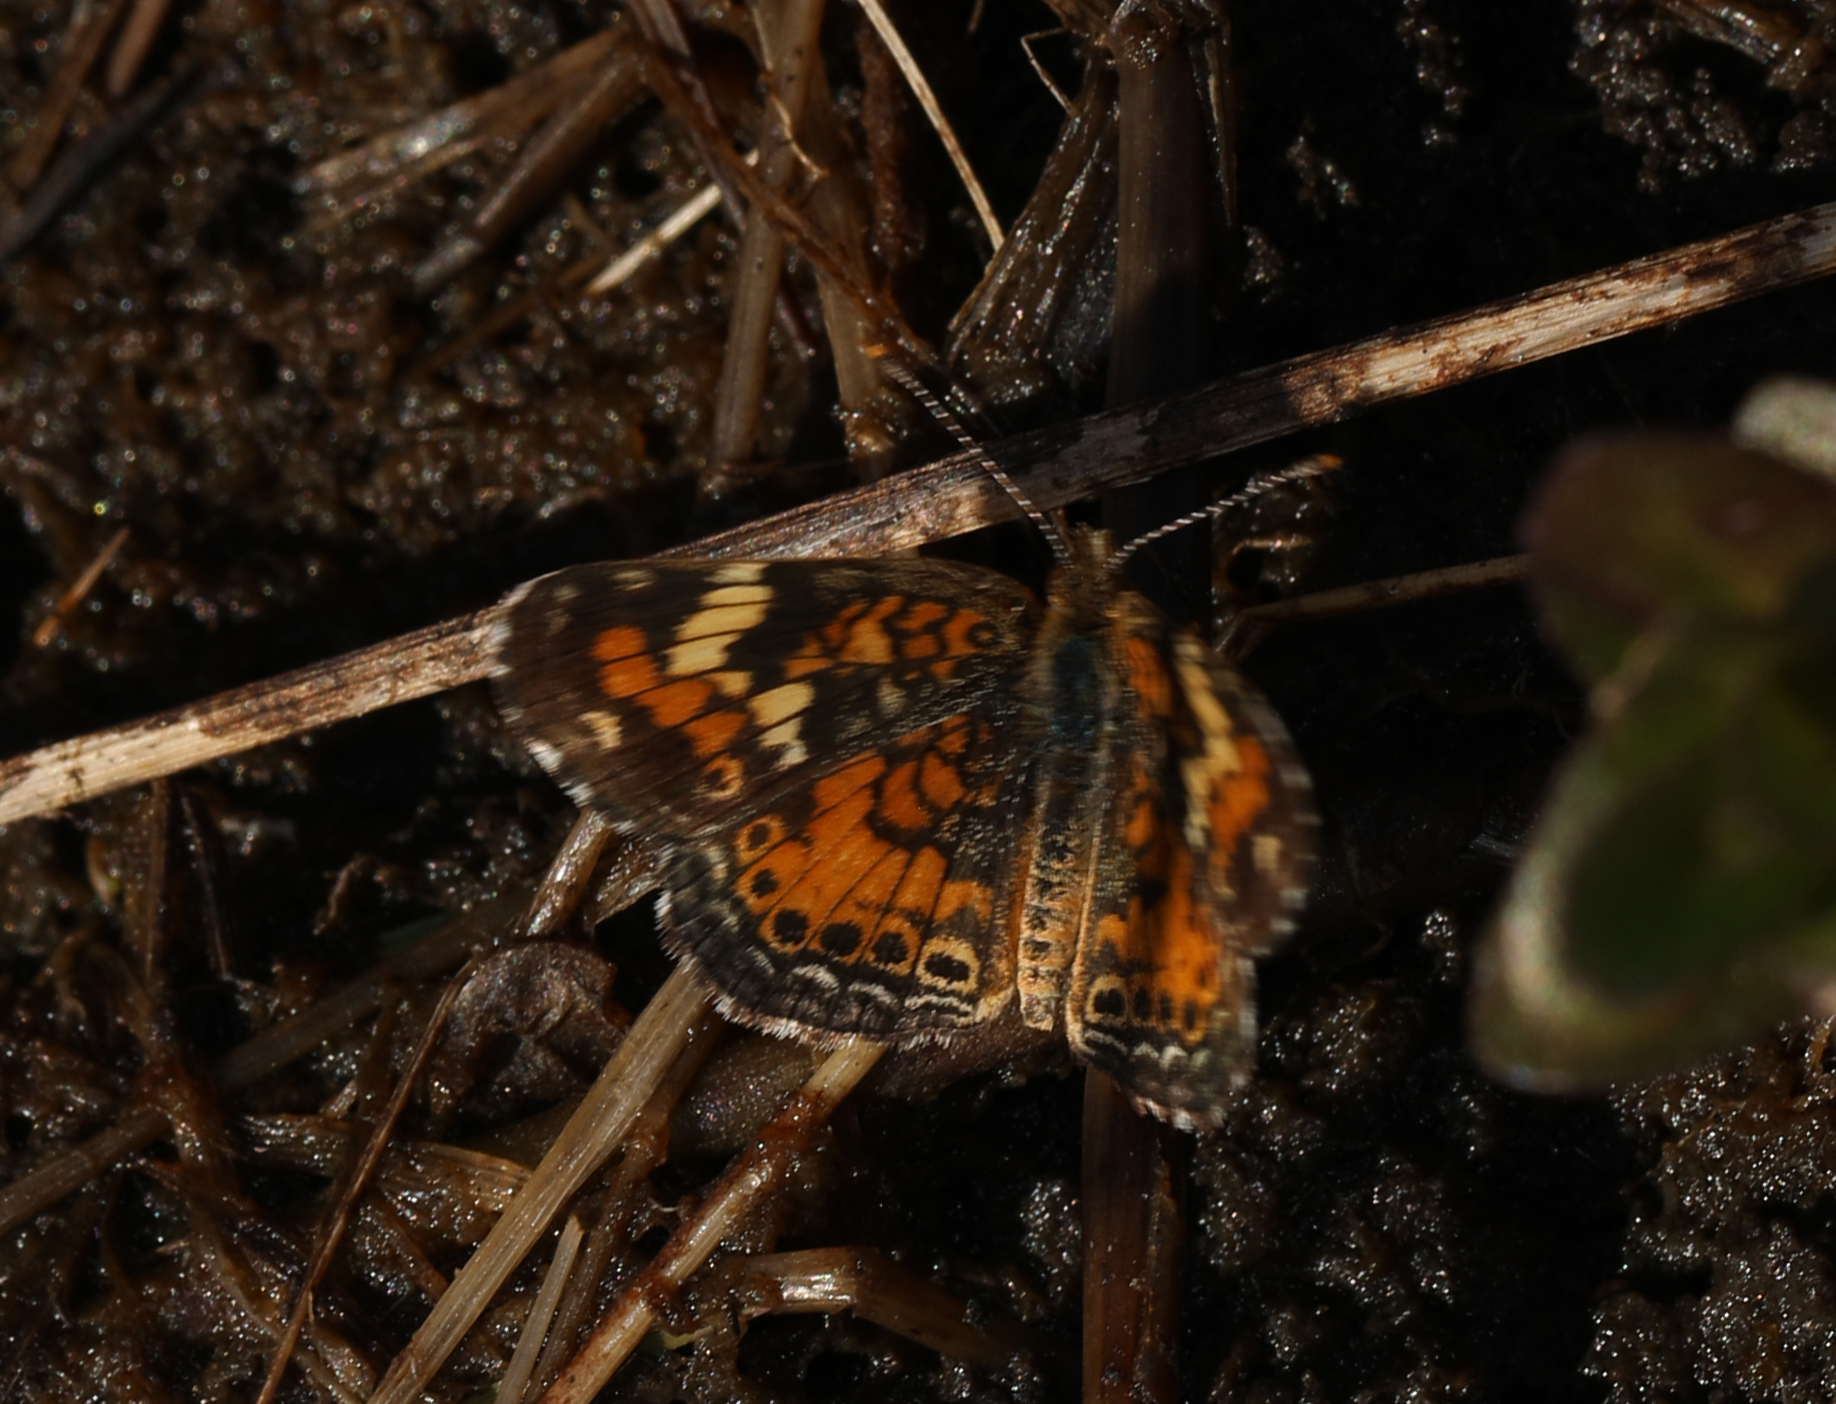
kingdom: Animalia
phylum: Arthropoda
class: Insecta
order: Lepidoptera
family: Nymphalidae
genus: Phyciodes
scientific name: Phyciodes phaon
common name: Phaon crescent
